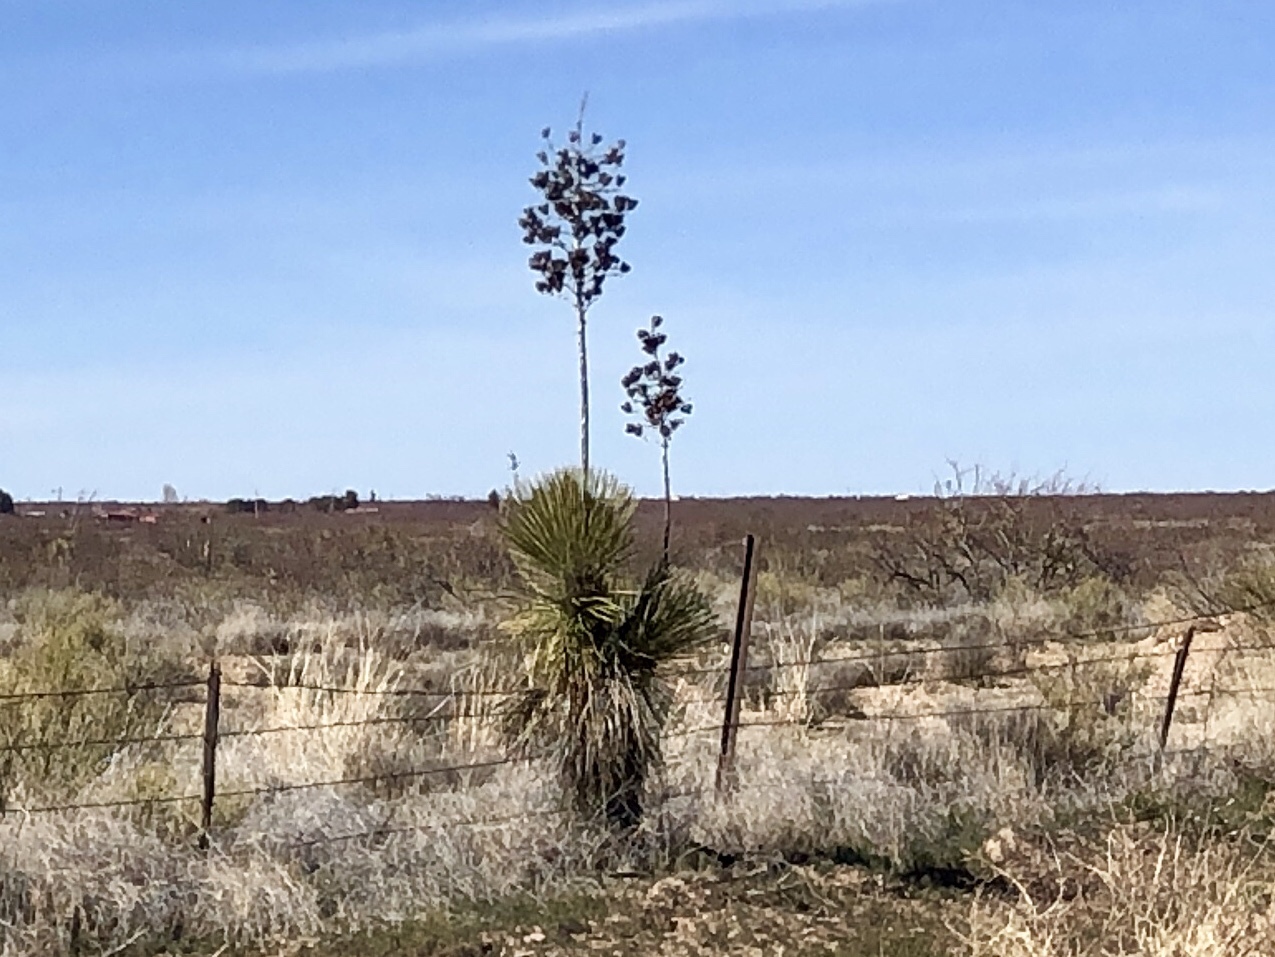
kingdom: Plantae
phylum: Tracheophyta
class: Liliopsida
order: Asparagales
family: Asparagaceae
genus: Yucca
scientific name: Yucca elata
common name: Palmella
